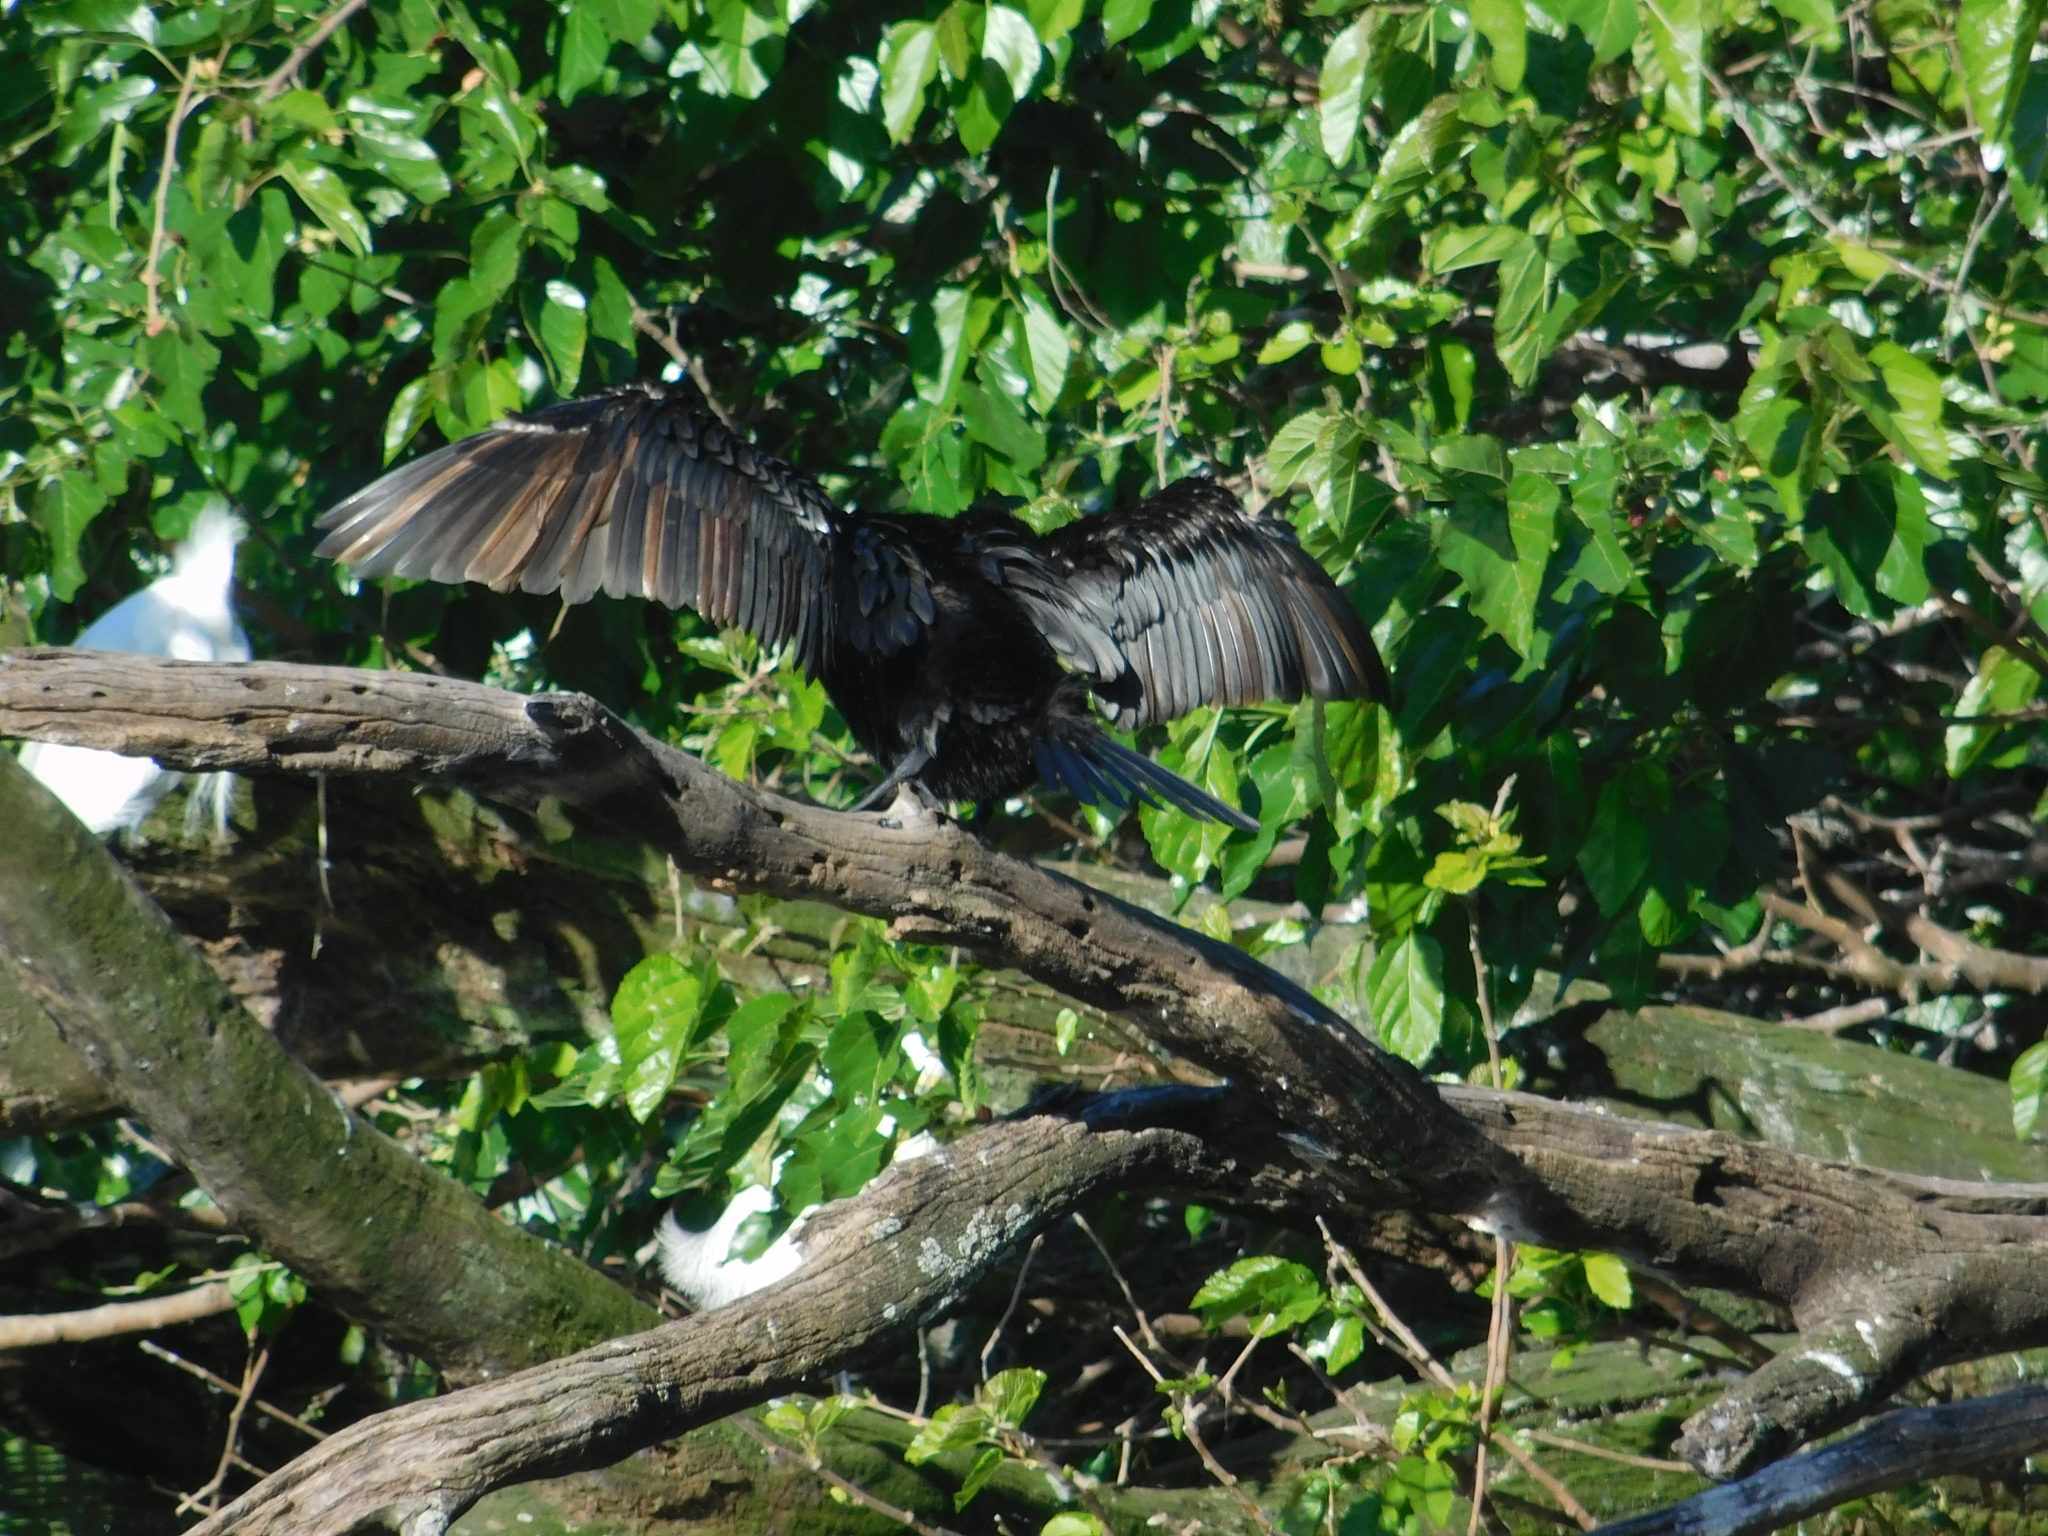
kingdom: Animalia
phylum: Chordata
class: Aves
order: Suliformes
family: Phalacrocoracidae
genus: Phalacrocorax
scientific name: Phalacrocorax brasilianus
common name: Neotropic cormorant
